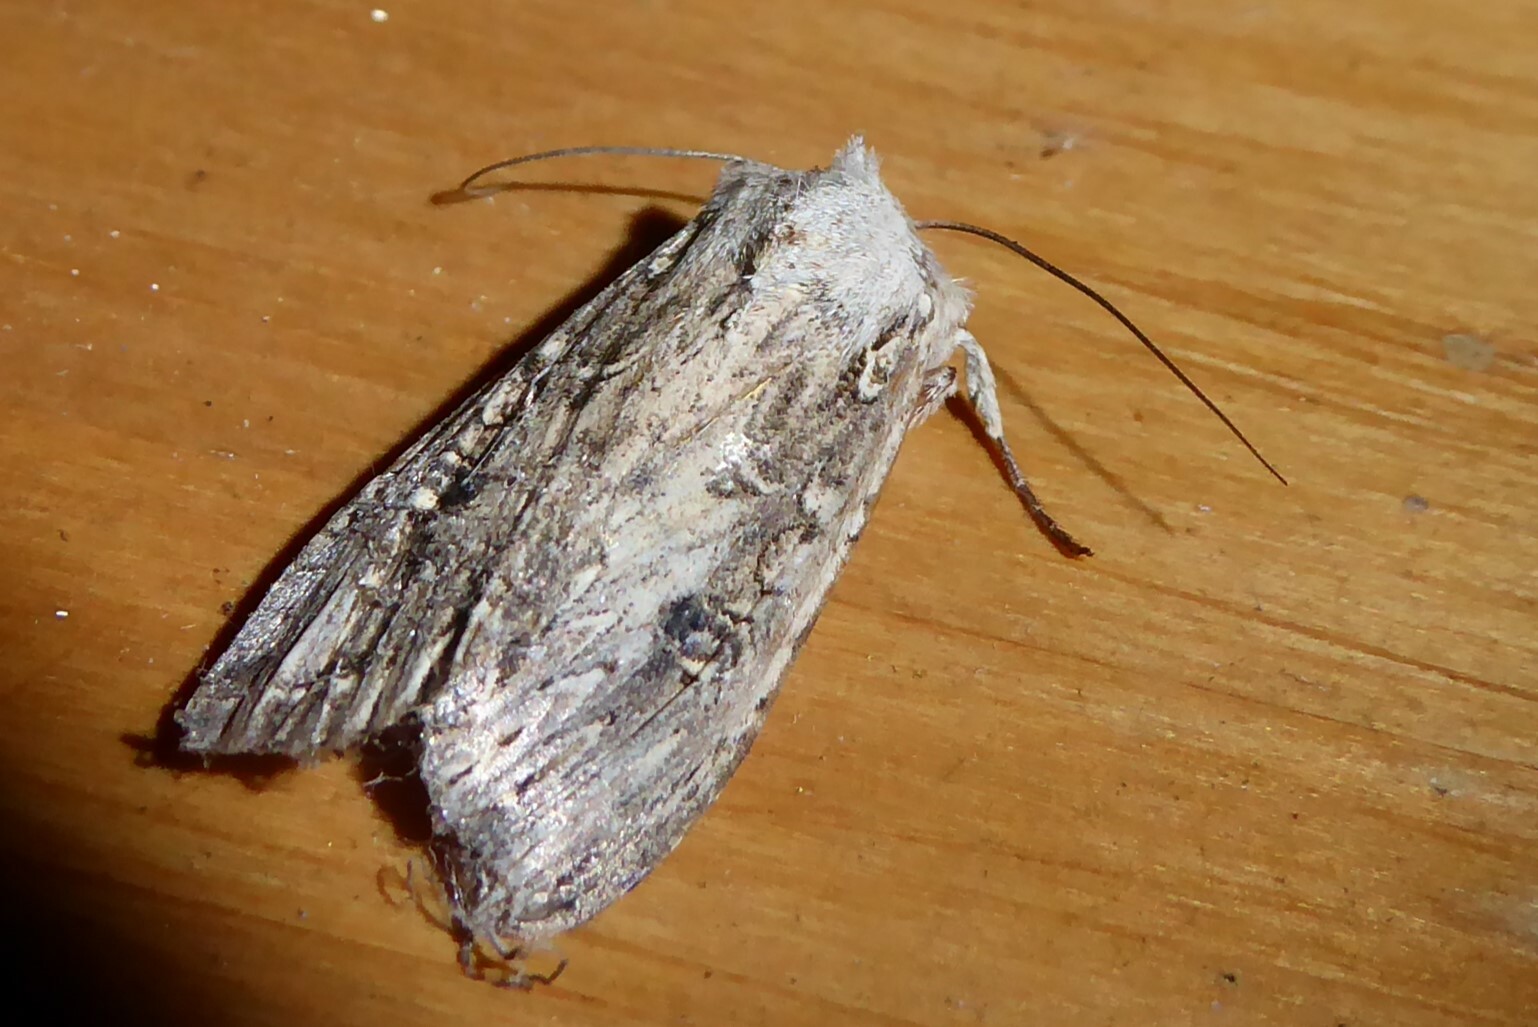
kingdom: Animalia
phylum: Arthropoda
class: Insecta
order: Lepidoptera
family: Noctuidae
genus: Ichneutica
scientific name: Ichneutica lignana
